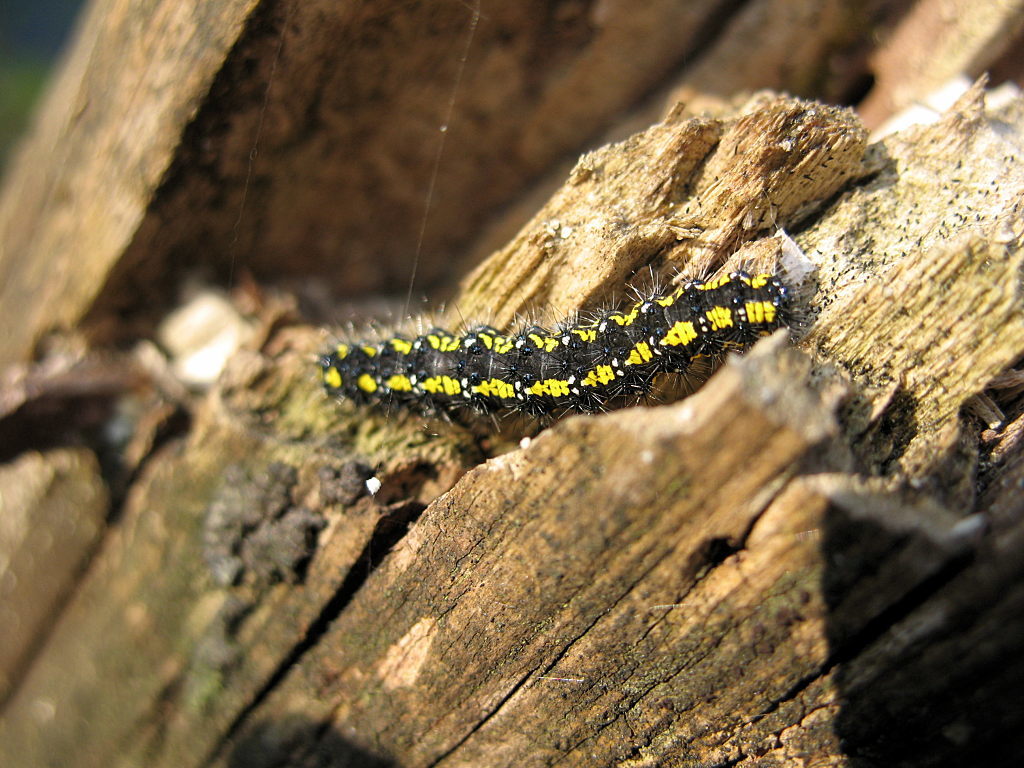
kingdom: Animalia
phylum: Arthropoda
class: Insecta
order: Lepidoptera
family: Erebidae
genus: Callimorpha
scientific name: Callimorpha dominula
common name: Scarlet tiger
